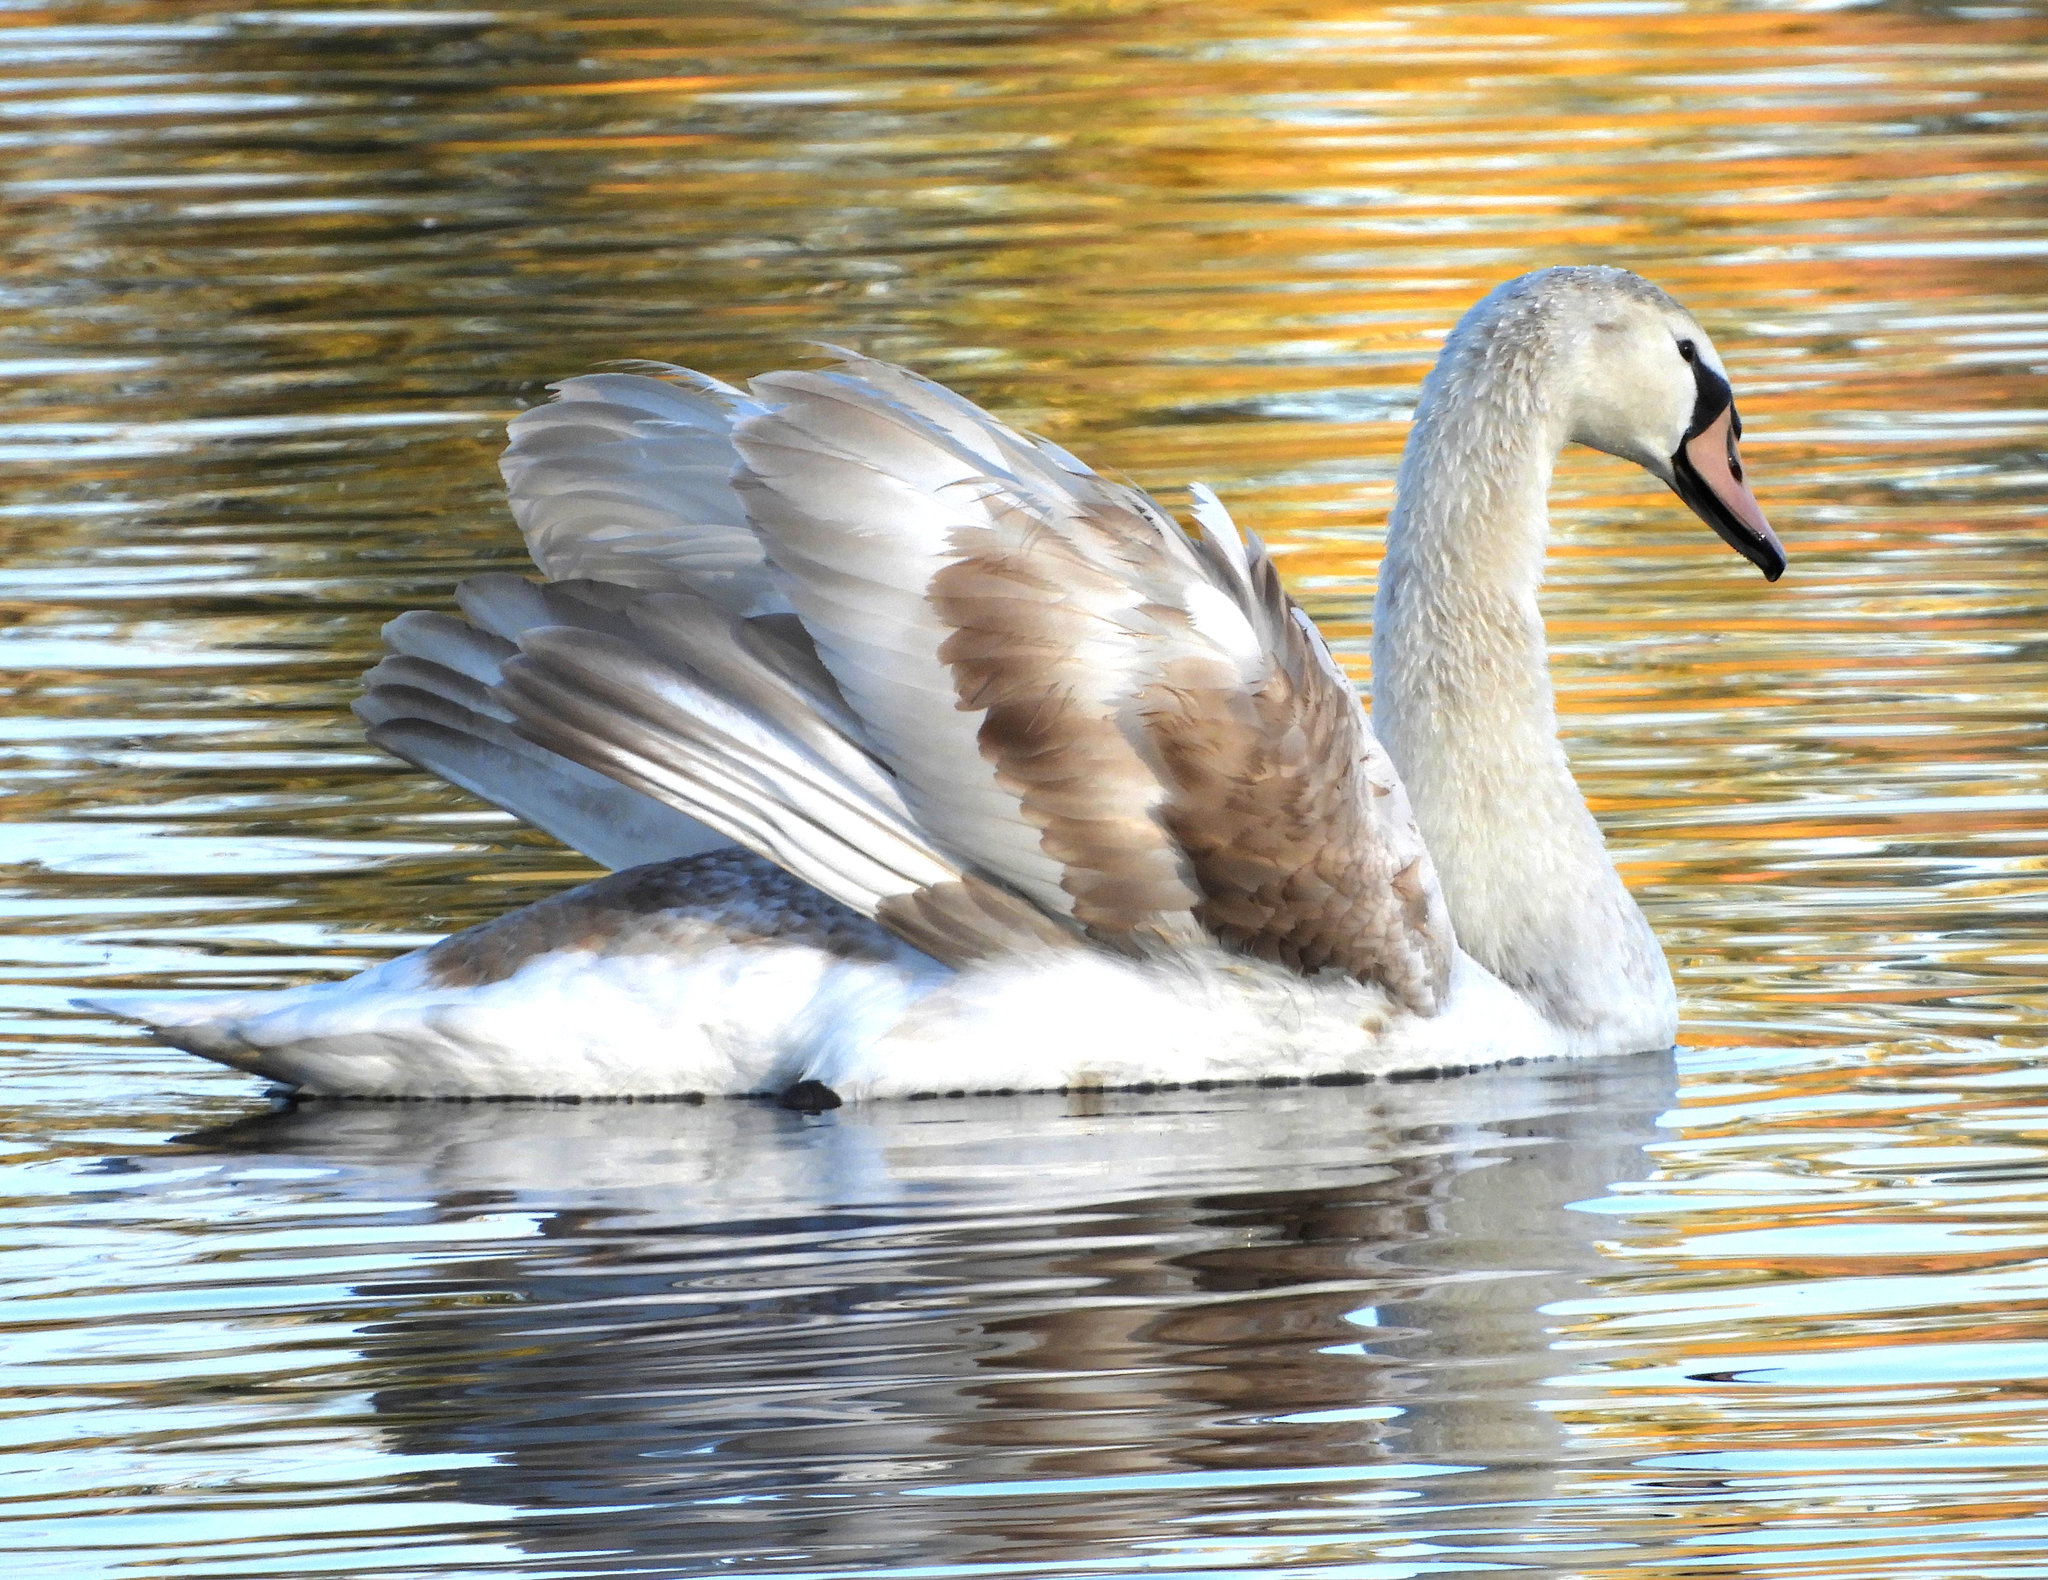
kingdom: Animalia
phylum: Chordata
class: Aves
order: Anseriformes
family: Anatidae
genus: Cygnus
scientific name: Cygnus olor
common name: Mute swan
